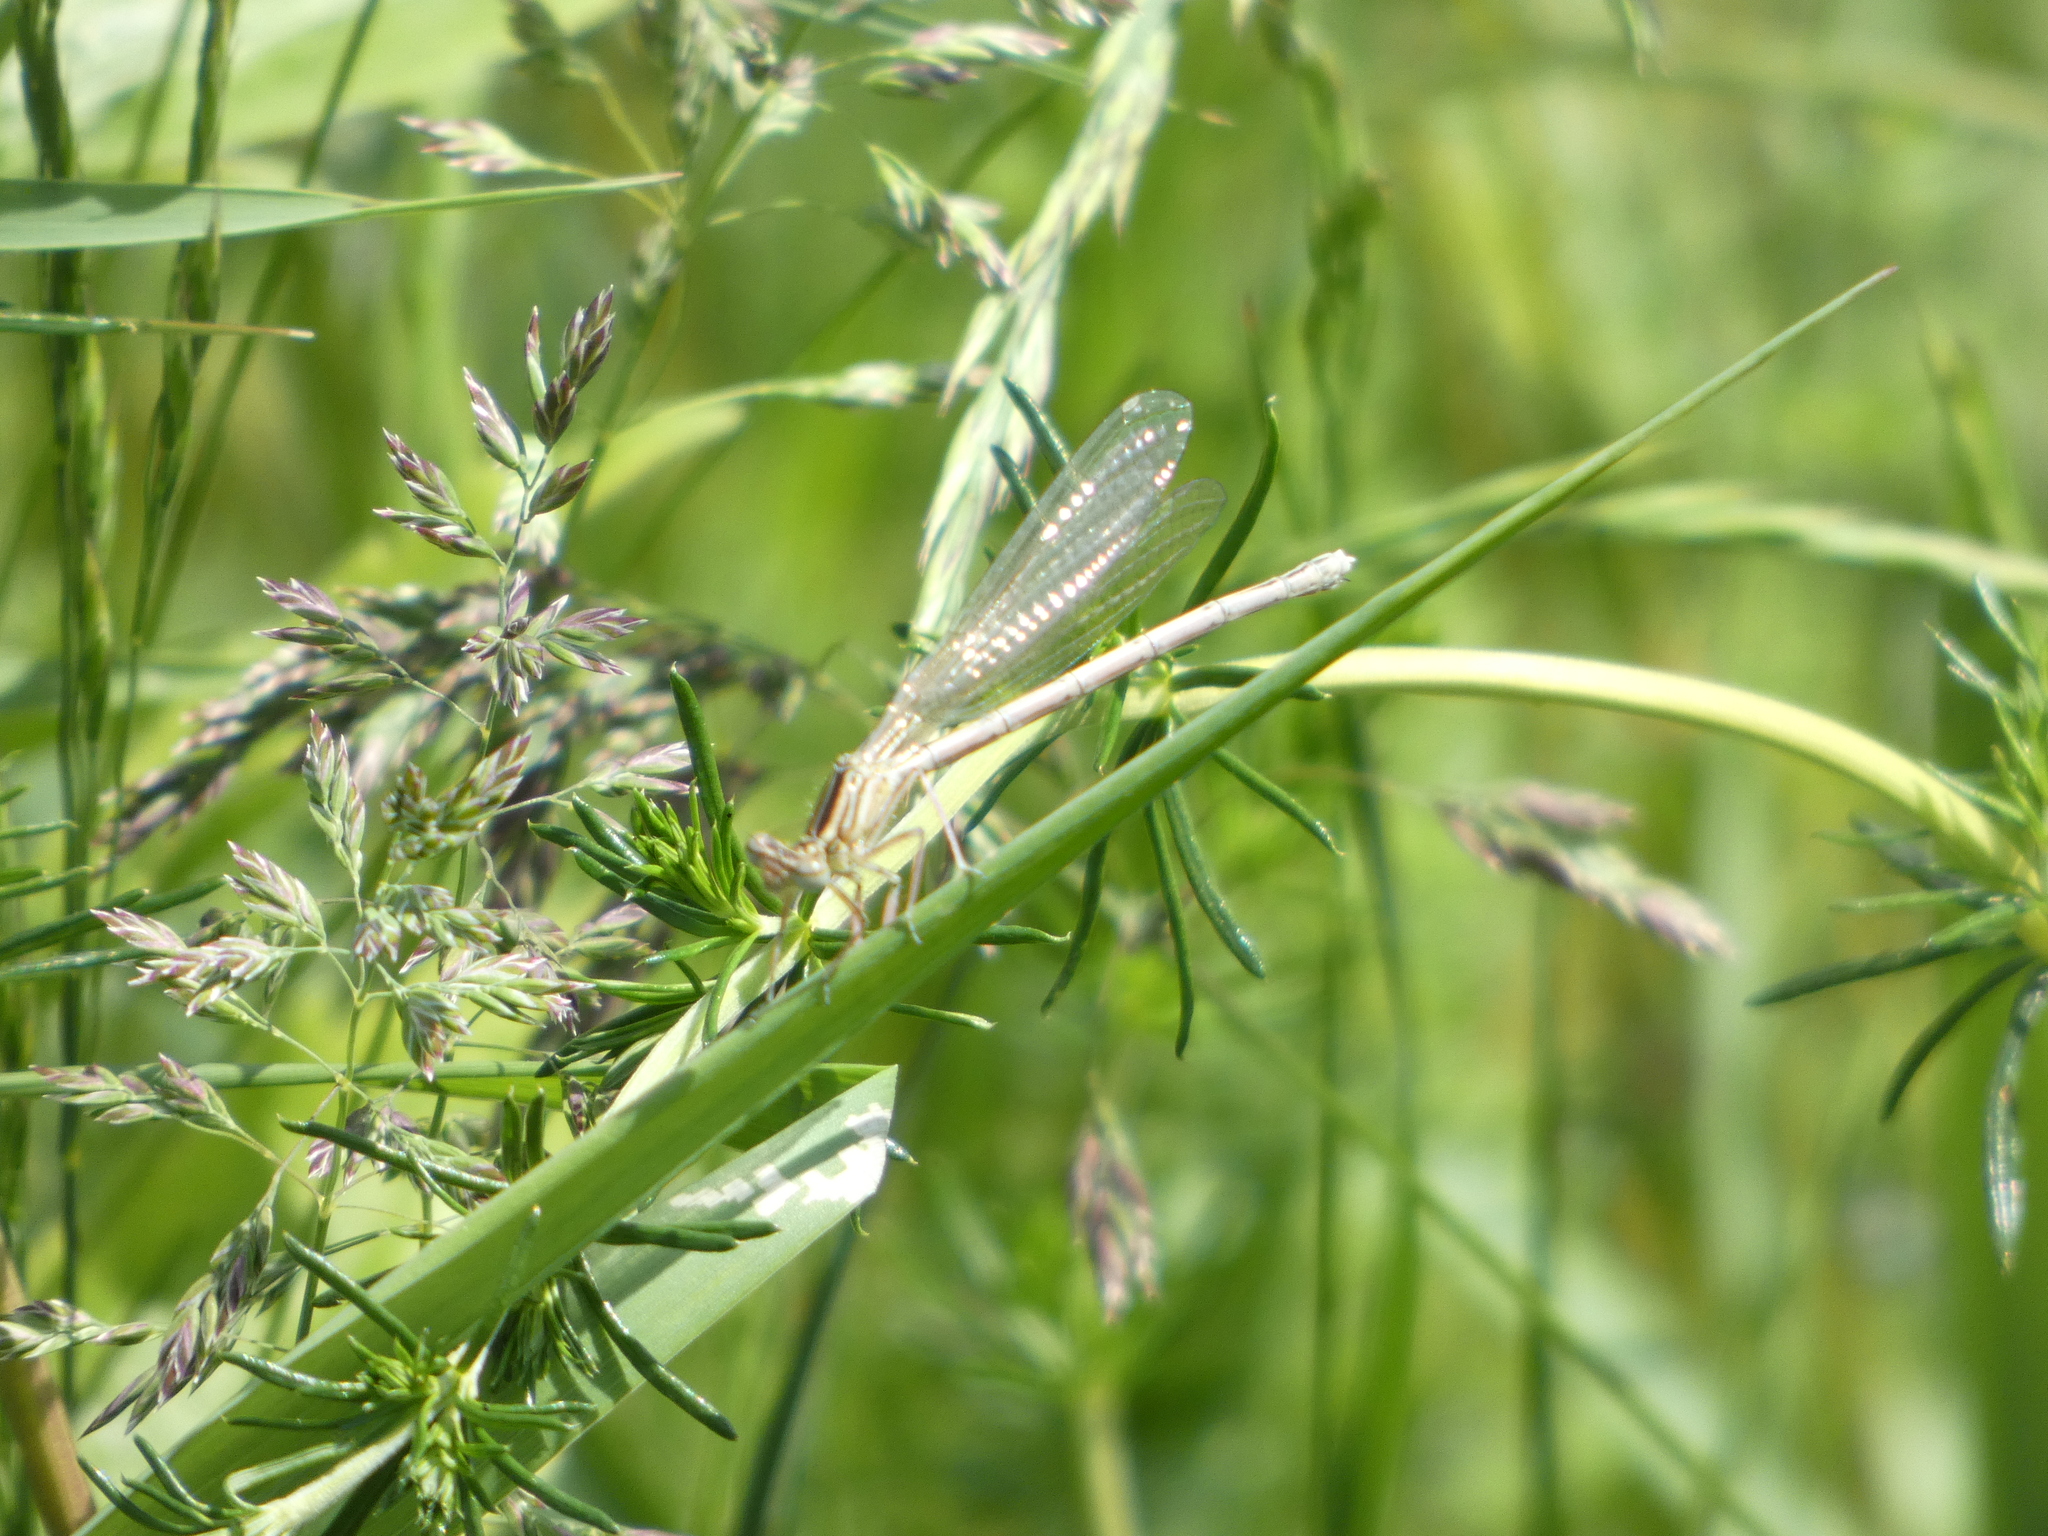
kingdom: Animalia
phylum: Arthropoda
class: Insecta
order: Odonata
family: Platycnemididae
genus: Platycnemis
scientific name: Platycnemis pennipes
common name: White-legged damselfly
